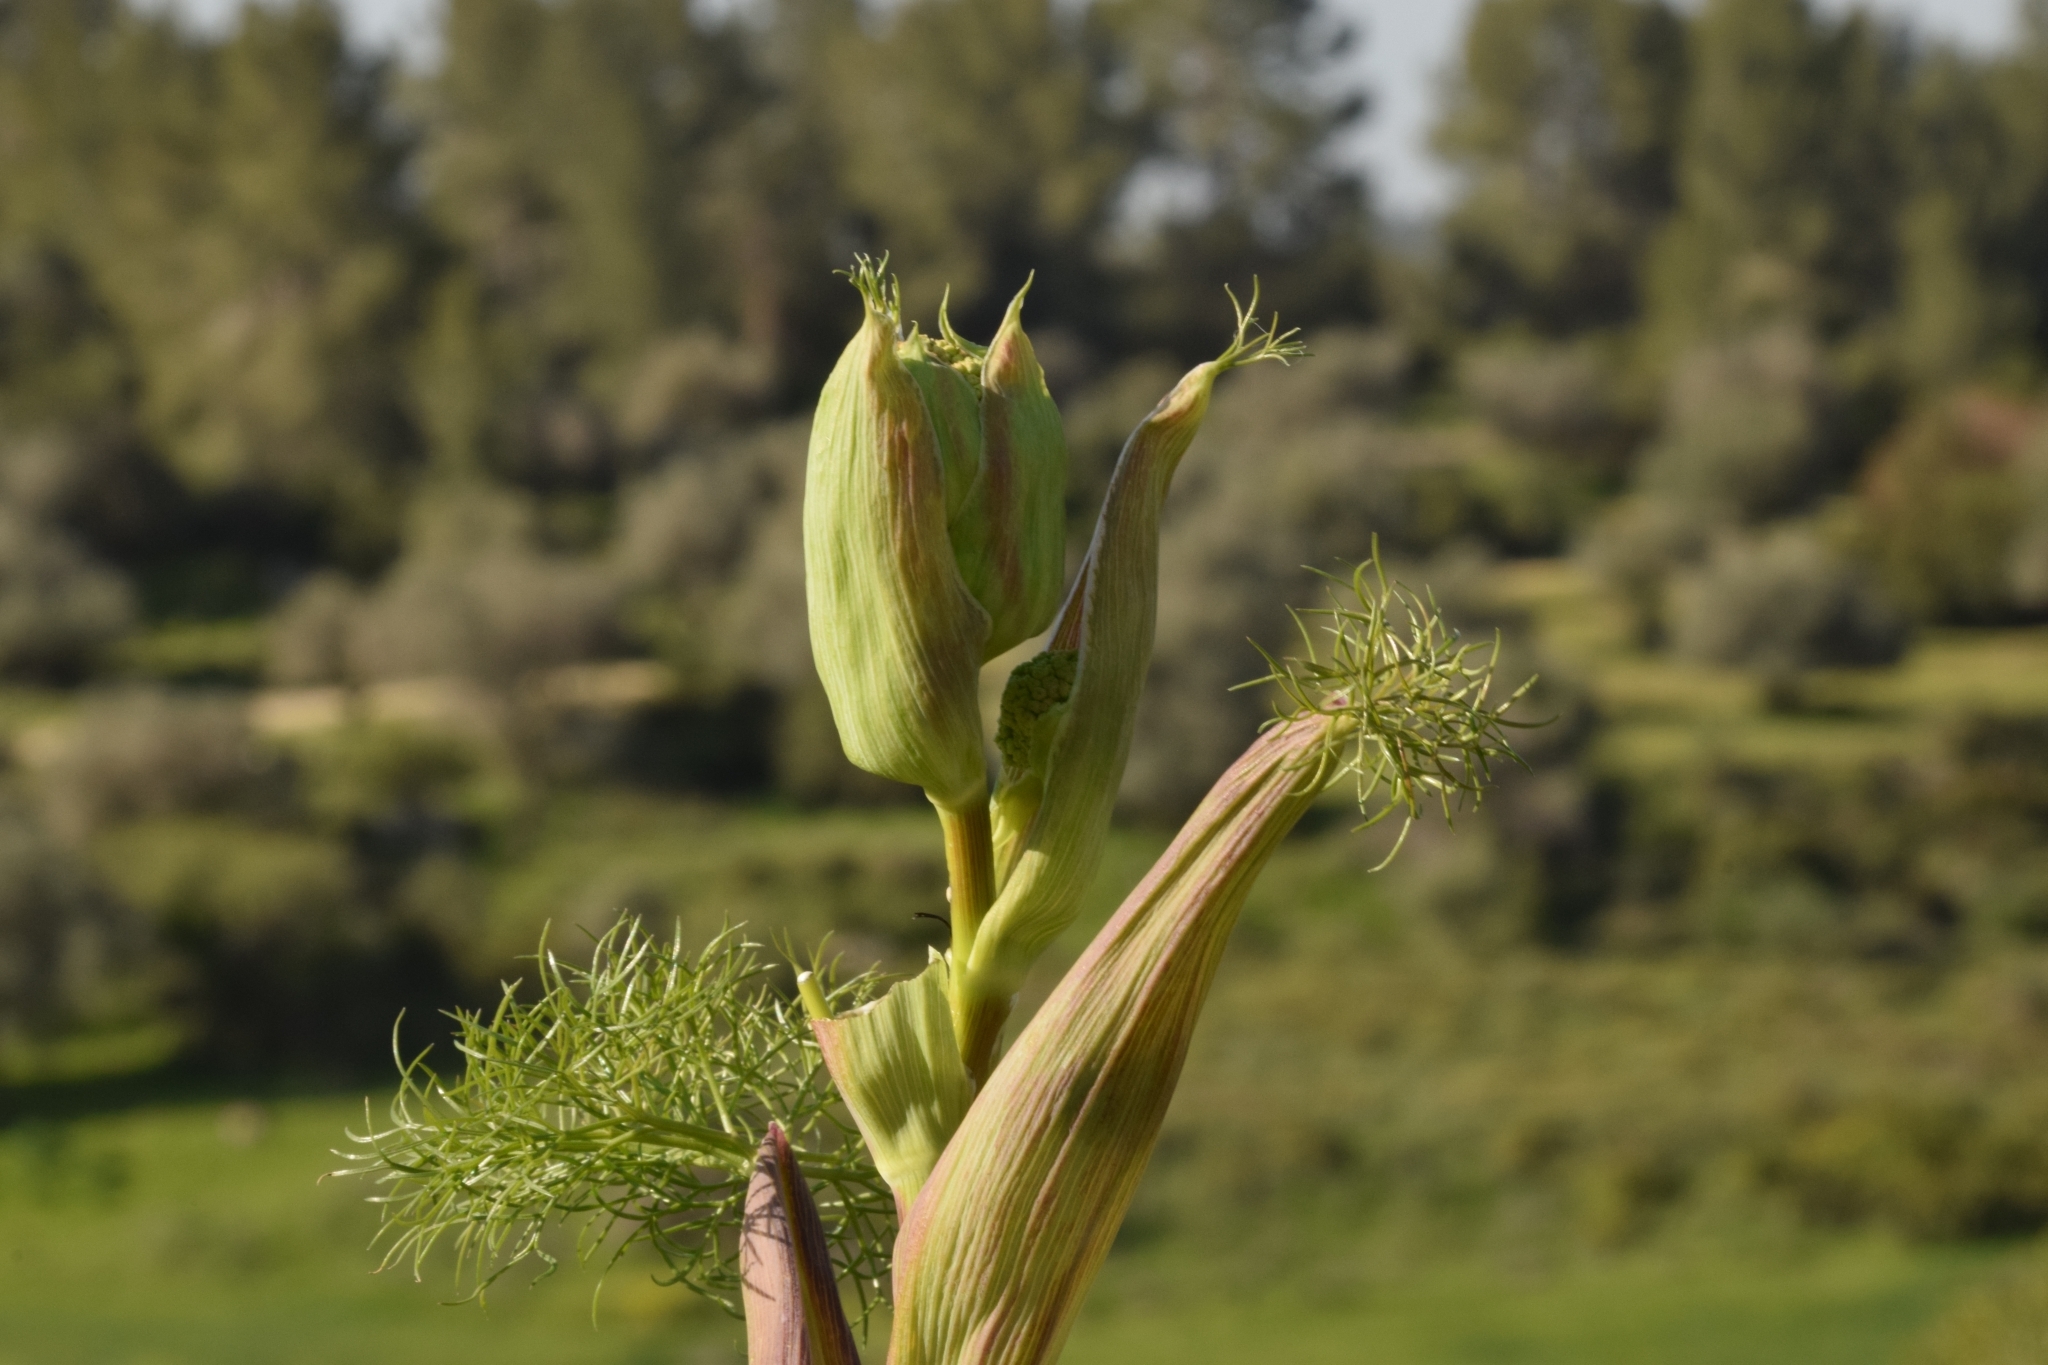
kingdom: Plantae
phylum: Tracheophyta
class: Magnoliopsida
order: Apiales
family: Apiaceae
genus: Ferula
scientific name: Ferula communis
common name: Giant fennel
